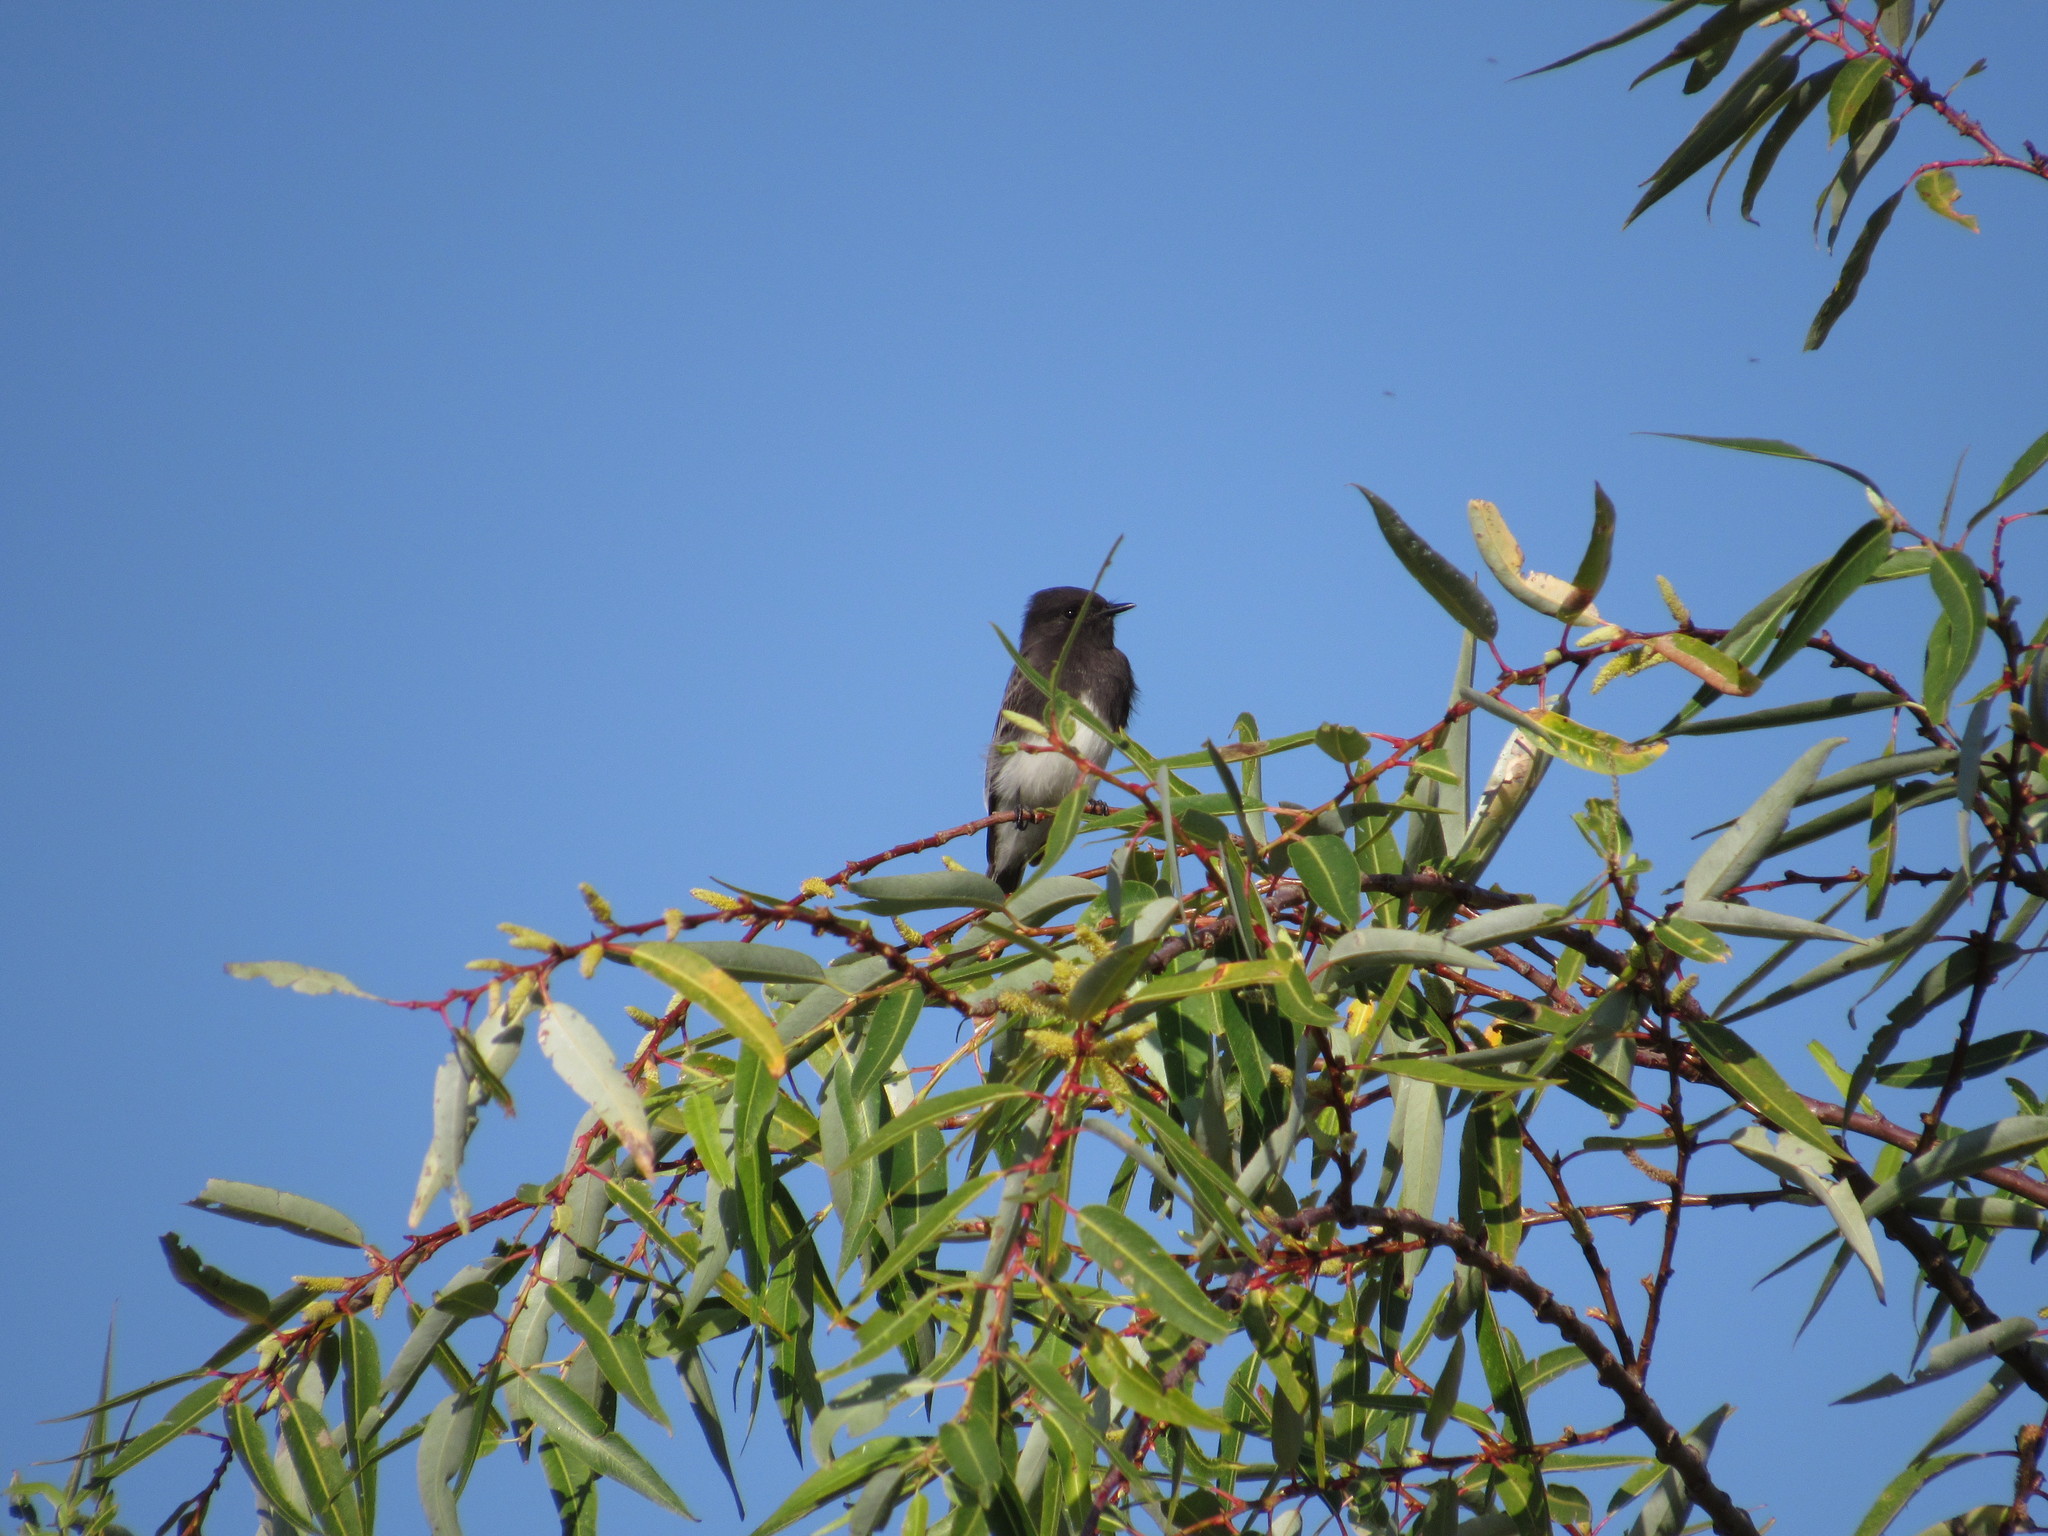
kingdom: Animalia
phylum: Chordata
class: Aves
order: Passeriformes
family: Tyrannidae
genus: Sayornis
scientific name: Sayornis nigricans
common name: Black phoebe
